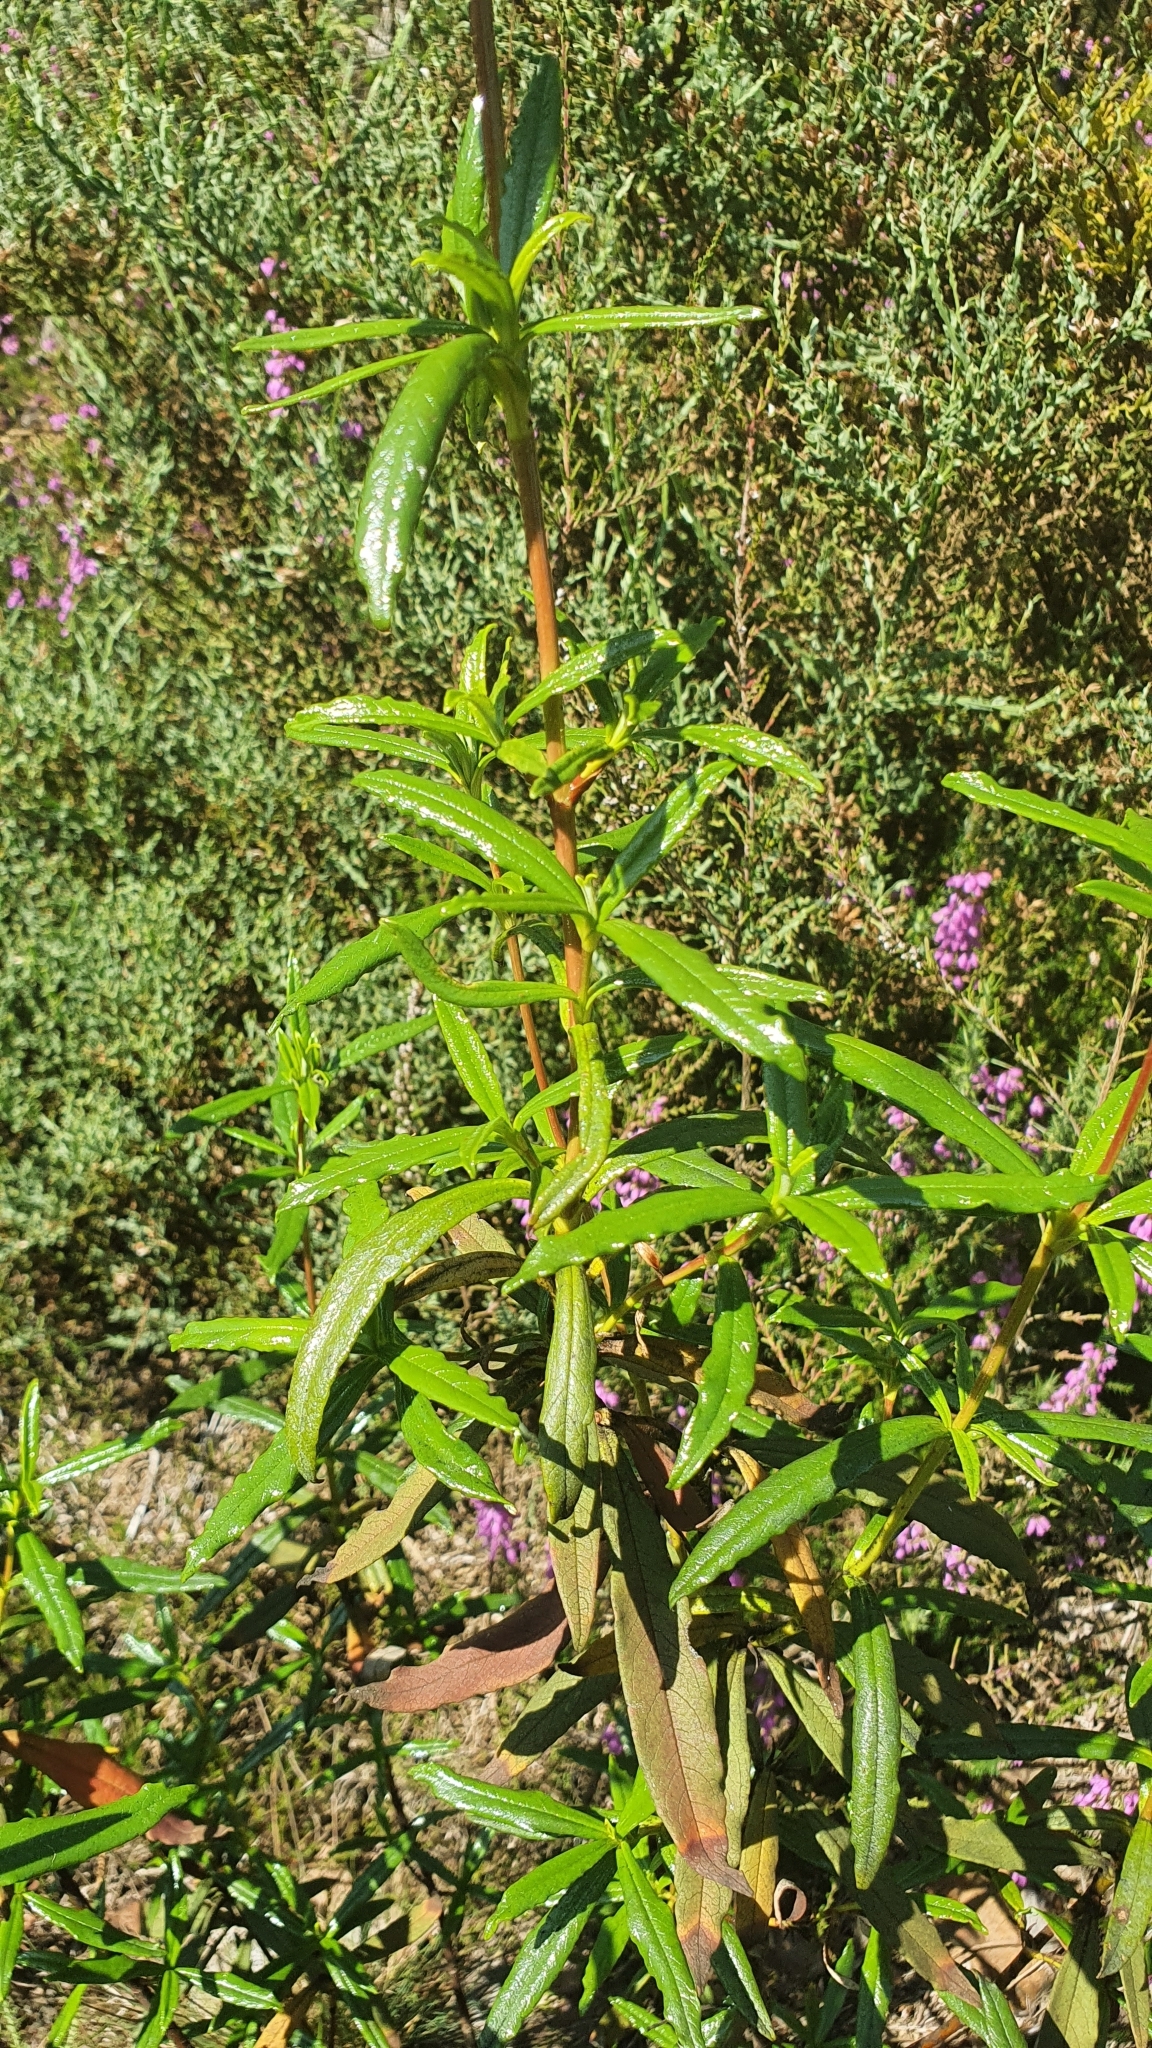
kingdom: Plantae
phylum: Tracheophyta
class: Magnoliopsida
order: Malvales
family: Cistaceae
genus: Cistus
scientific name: Cistus ladanifer
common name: Common gum cistus
